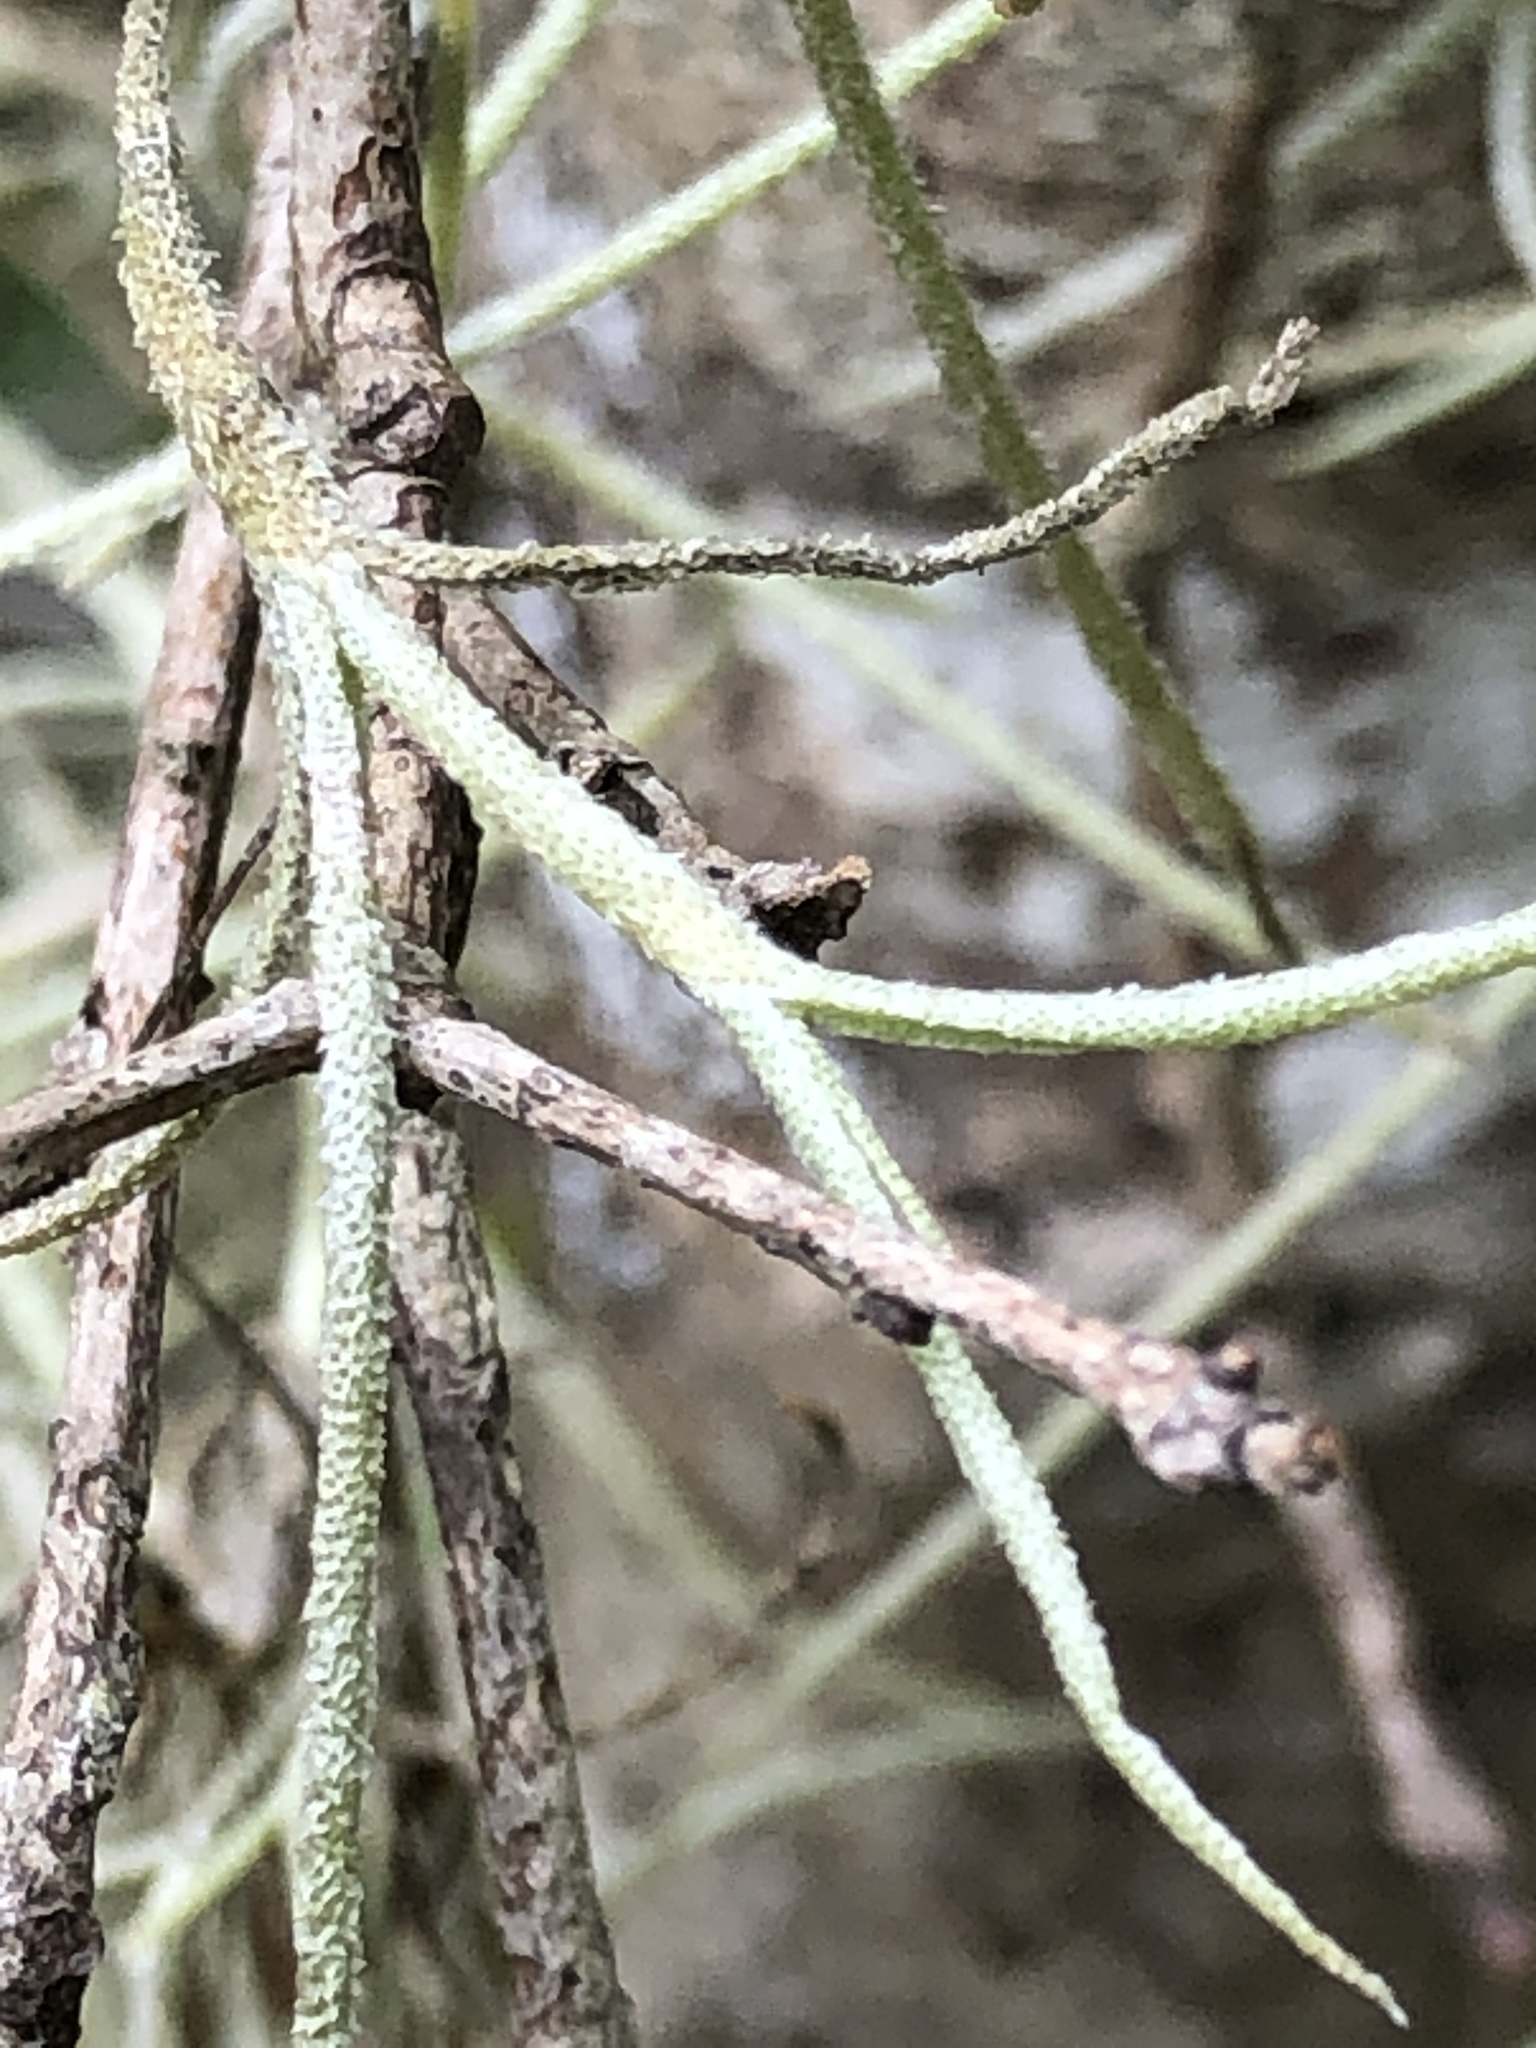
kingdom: Plantae
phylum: Tracheophyta
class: Liliopsida
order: Poales
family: Bromeliaceae
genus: Tillandsia
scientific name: Tillandsia usneoides
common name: Spanish moss
